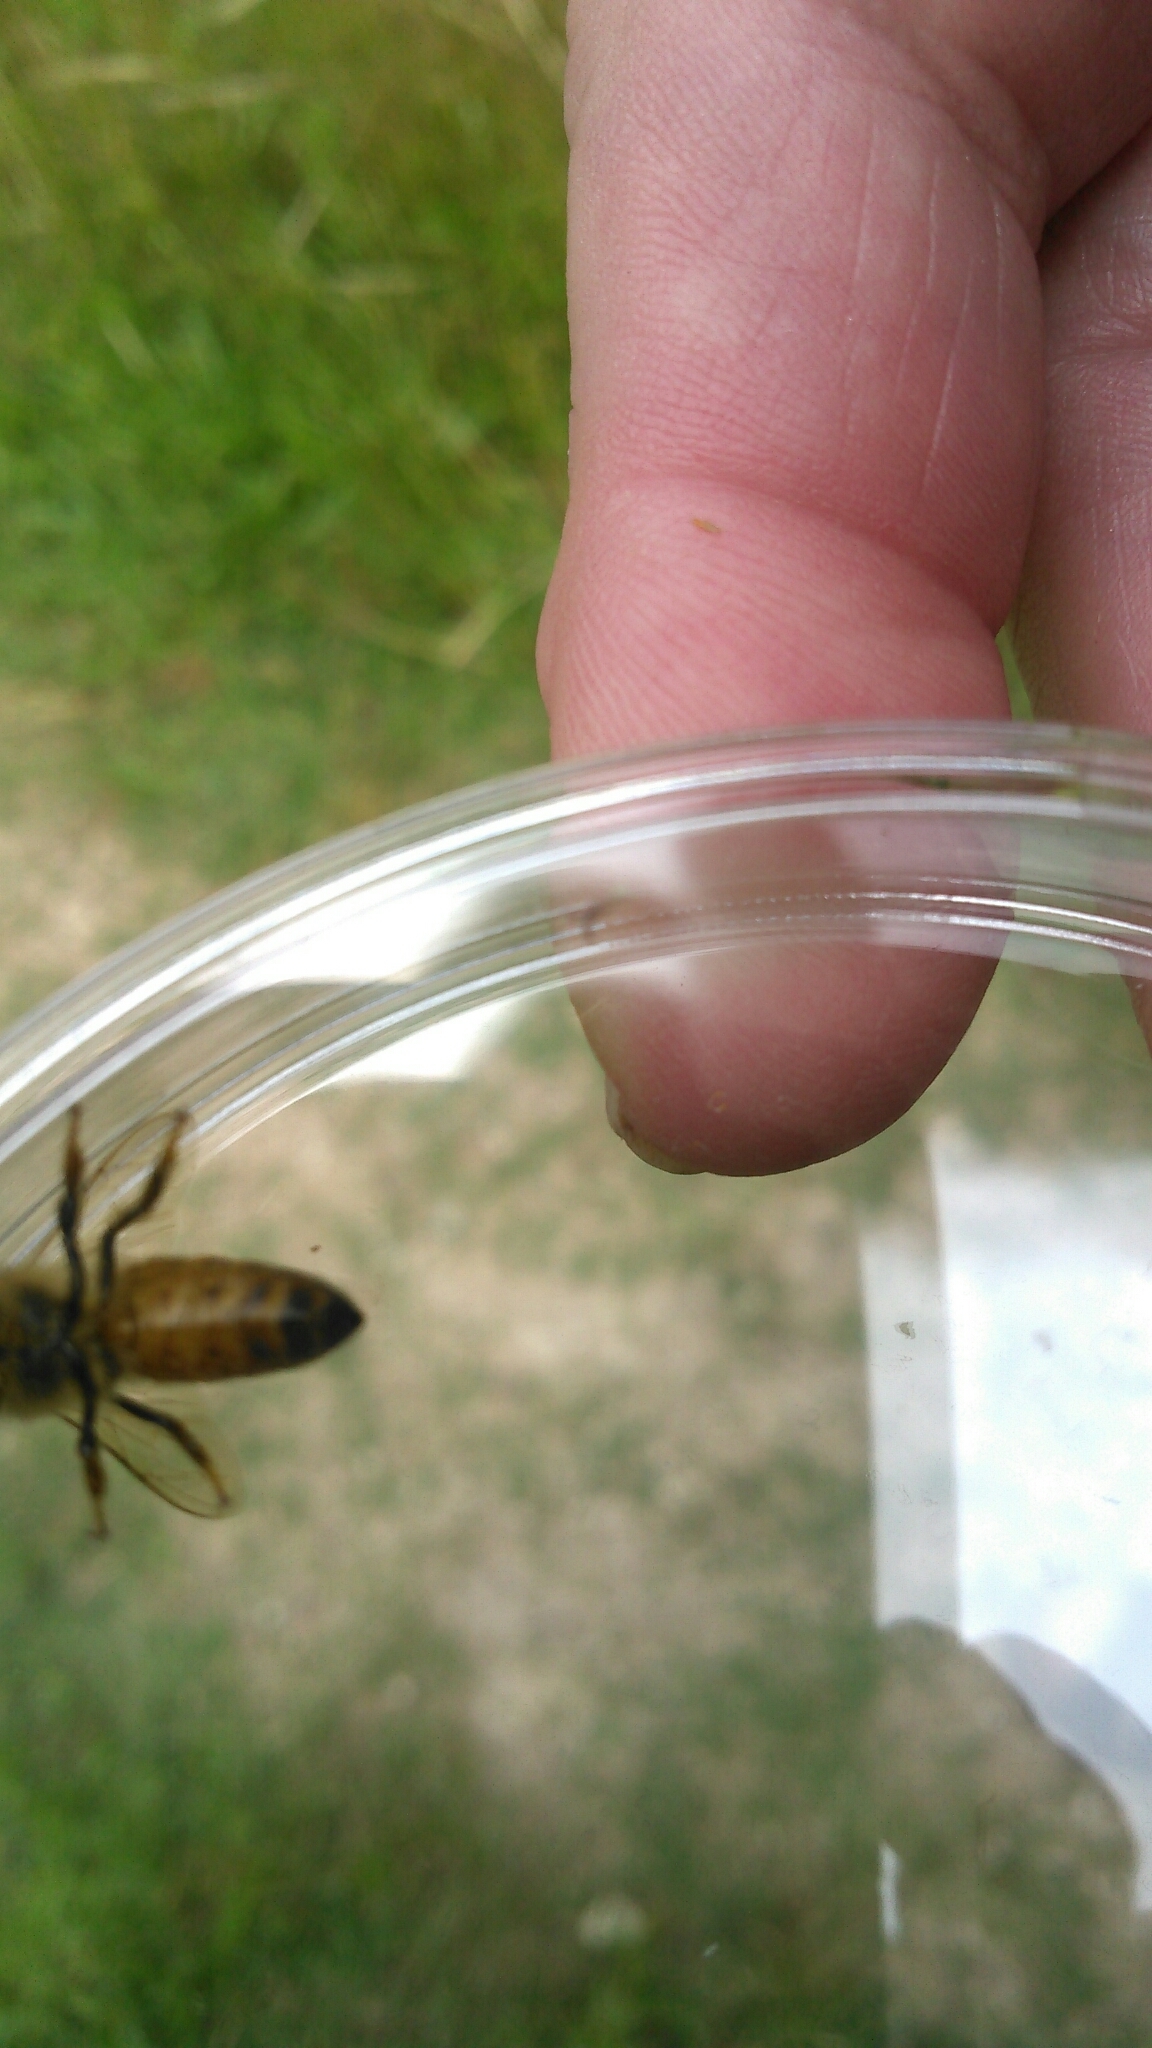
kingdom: Animalia
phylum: Arthropoda
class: Insecta
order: Hymenoptera
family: Apidae
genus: Apis
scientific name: Apis mellifera
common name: Honey bee
